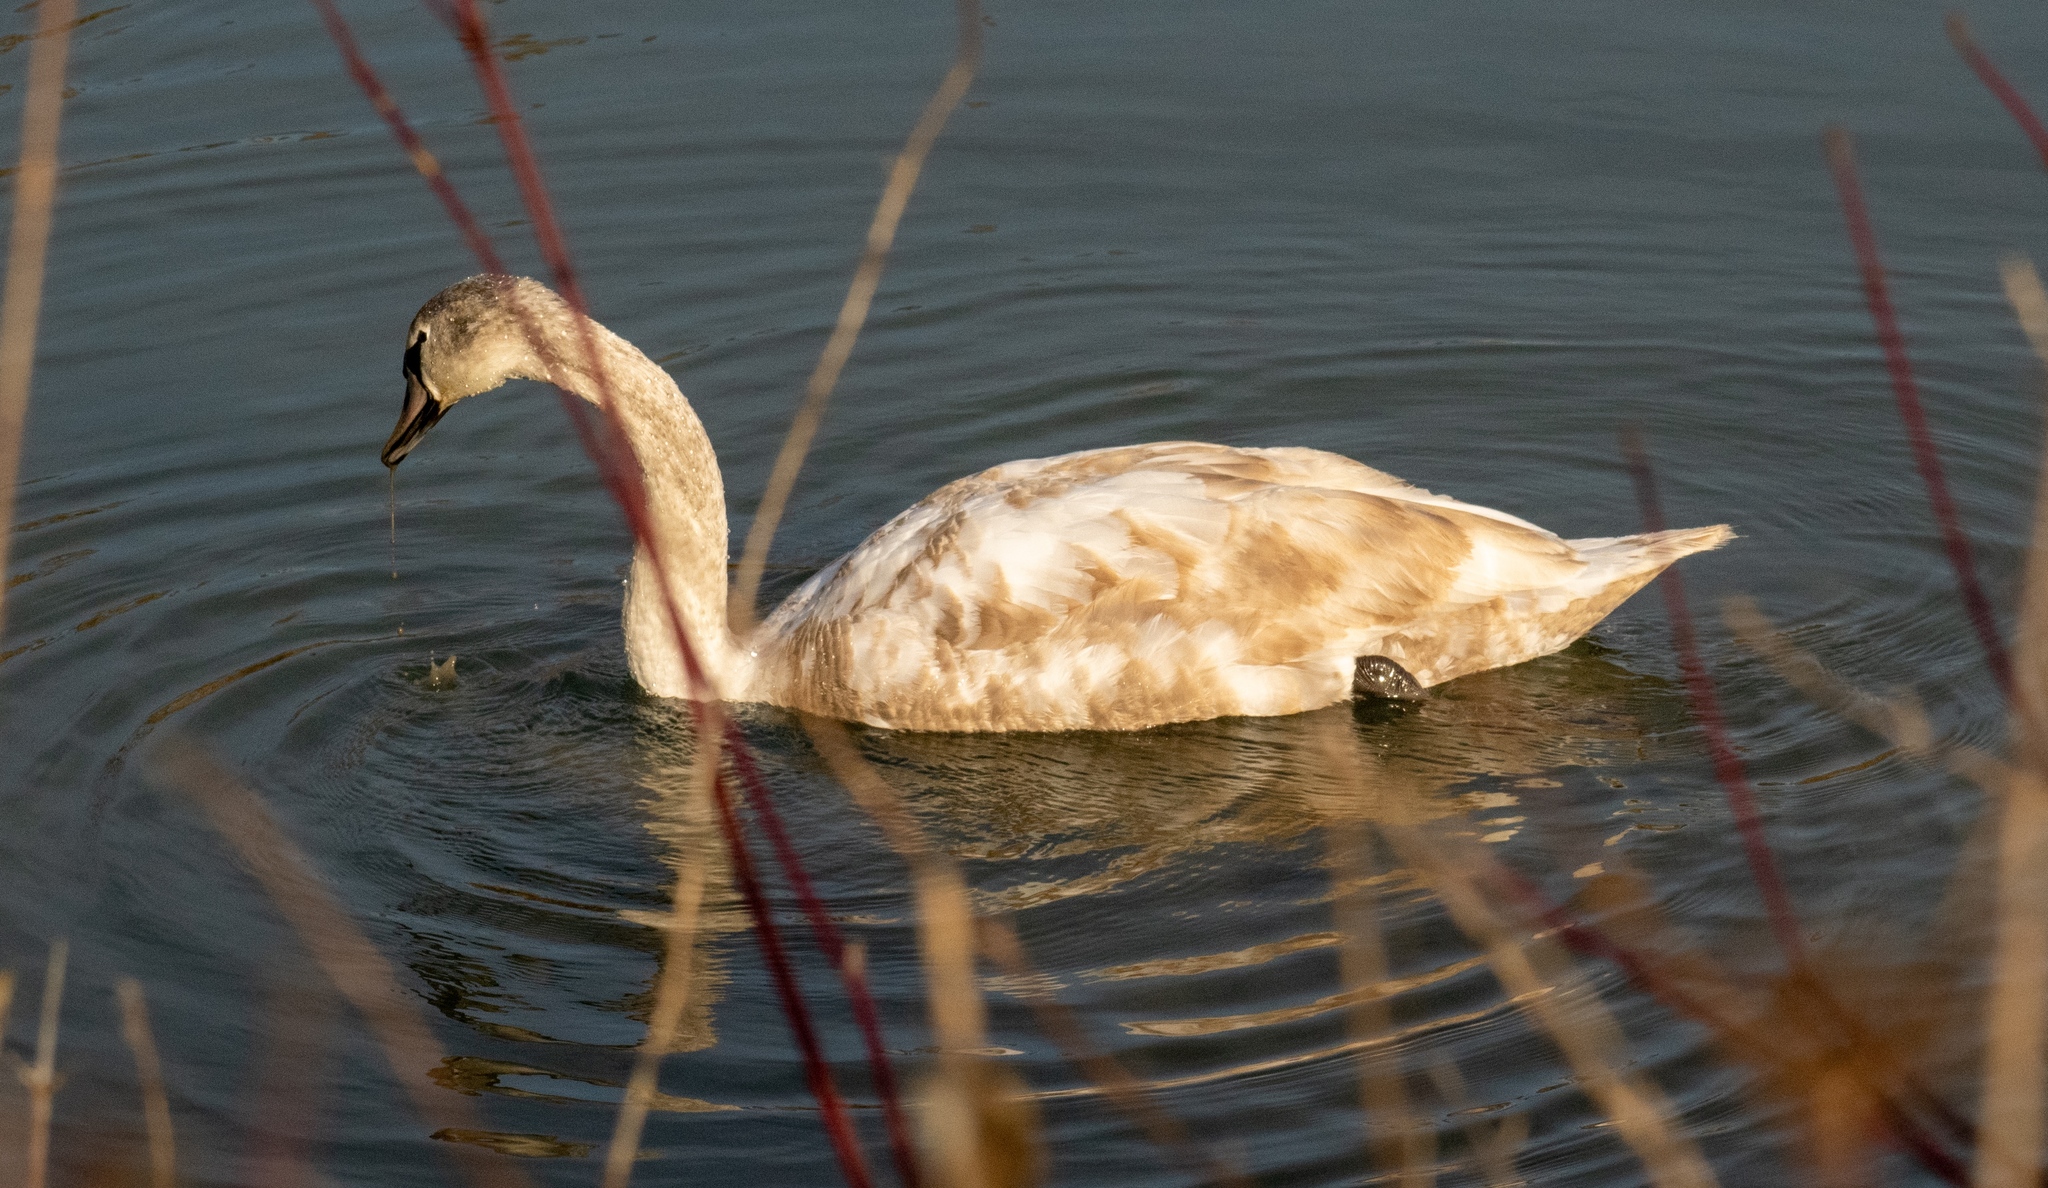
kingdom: Animalia
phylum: Chordata
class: Aves
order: Anseriformes
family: Anatidae
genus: Cygnus
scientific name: Cygnus olor
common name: Mute swan
